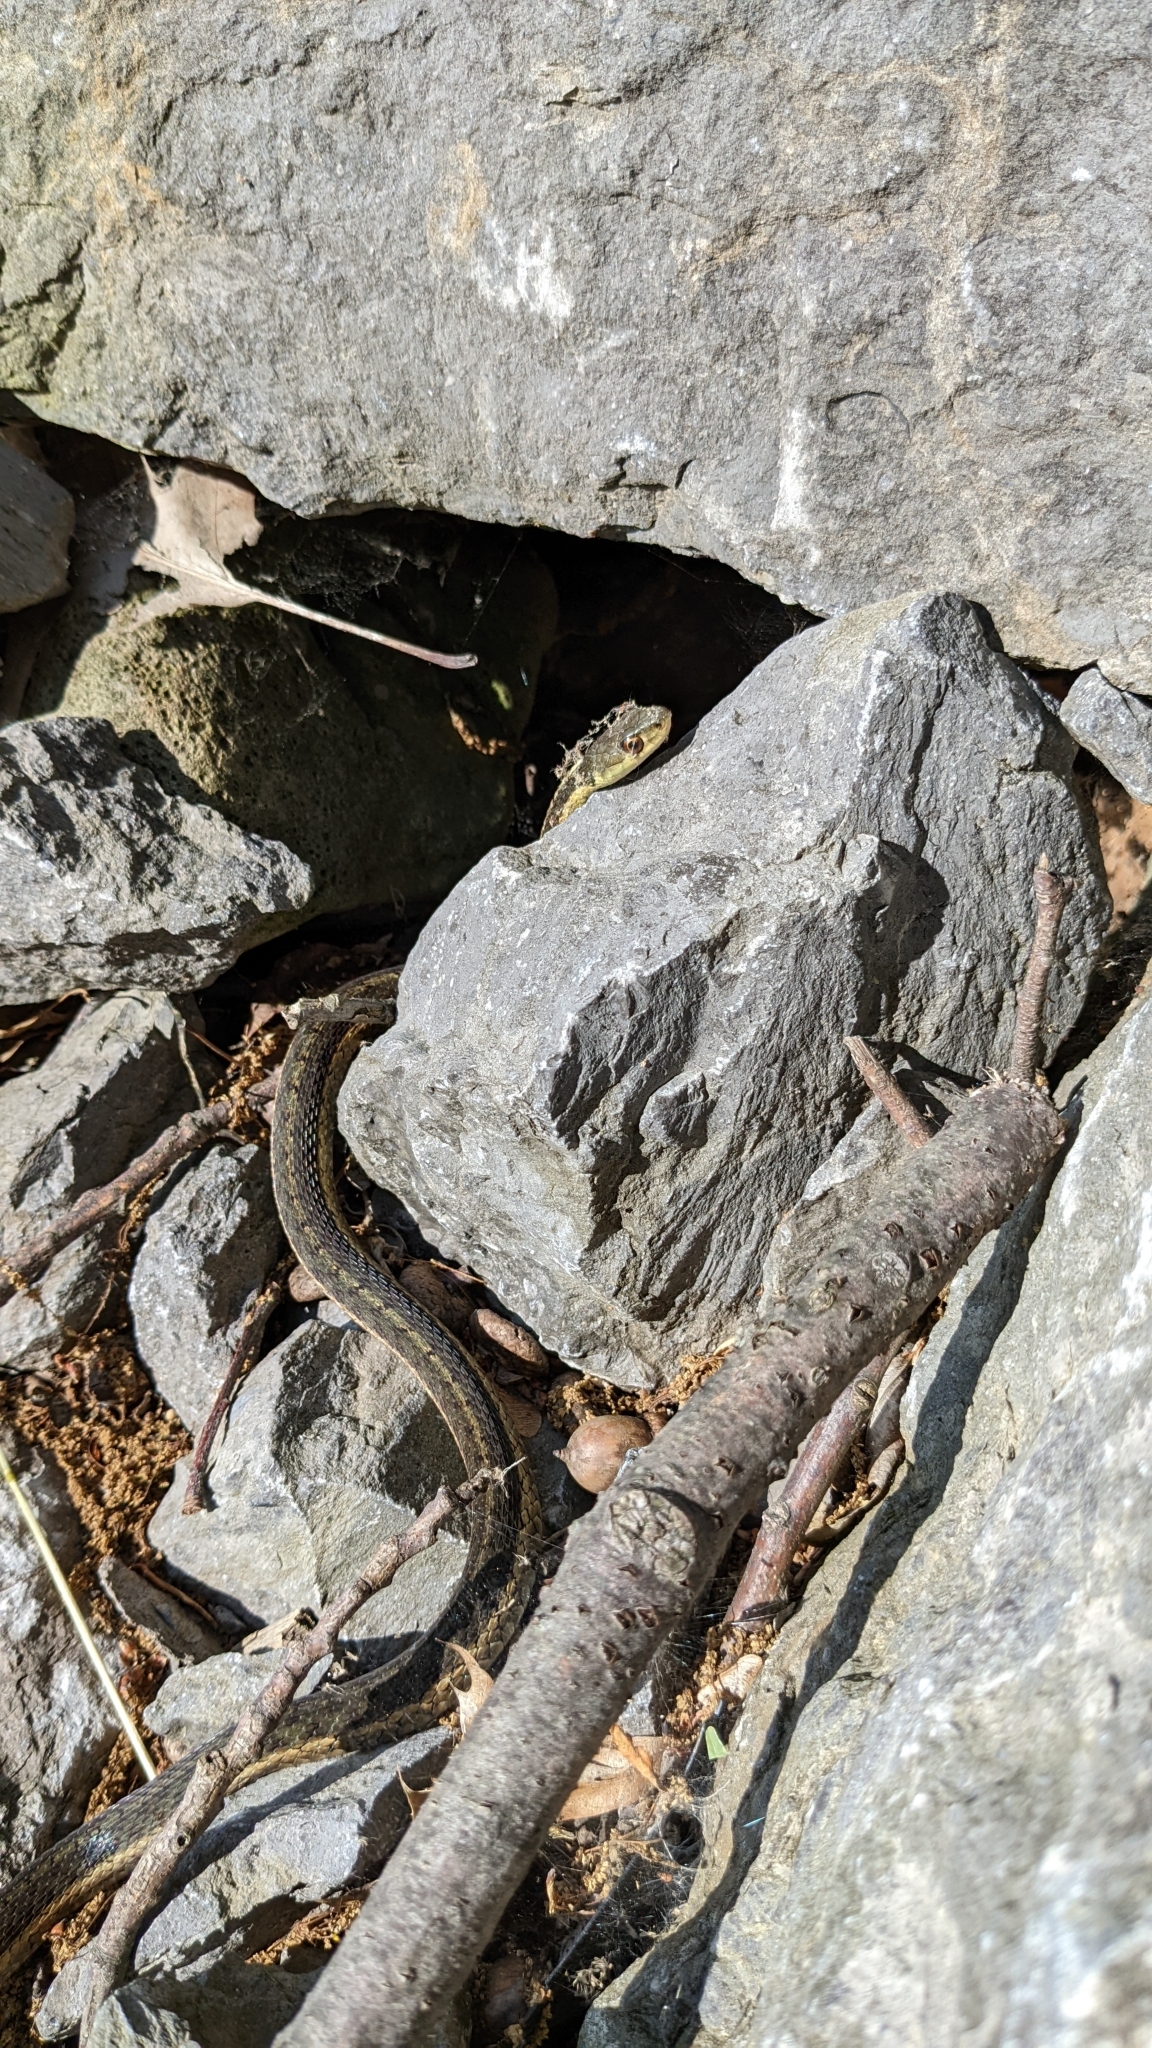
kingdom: Animalia
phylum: Chordata
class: Squamata
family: Colubridae
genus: Thamnophis
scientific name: Thamnophis sirtalis
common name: Common garter snake
